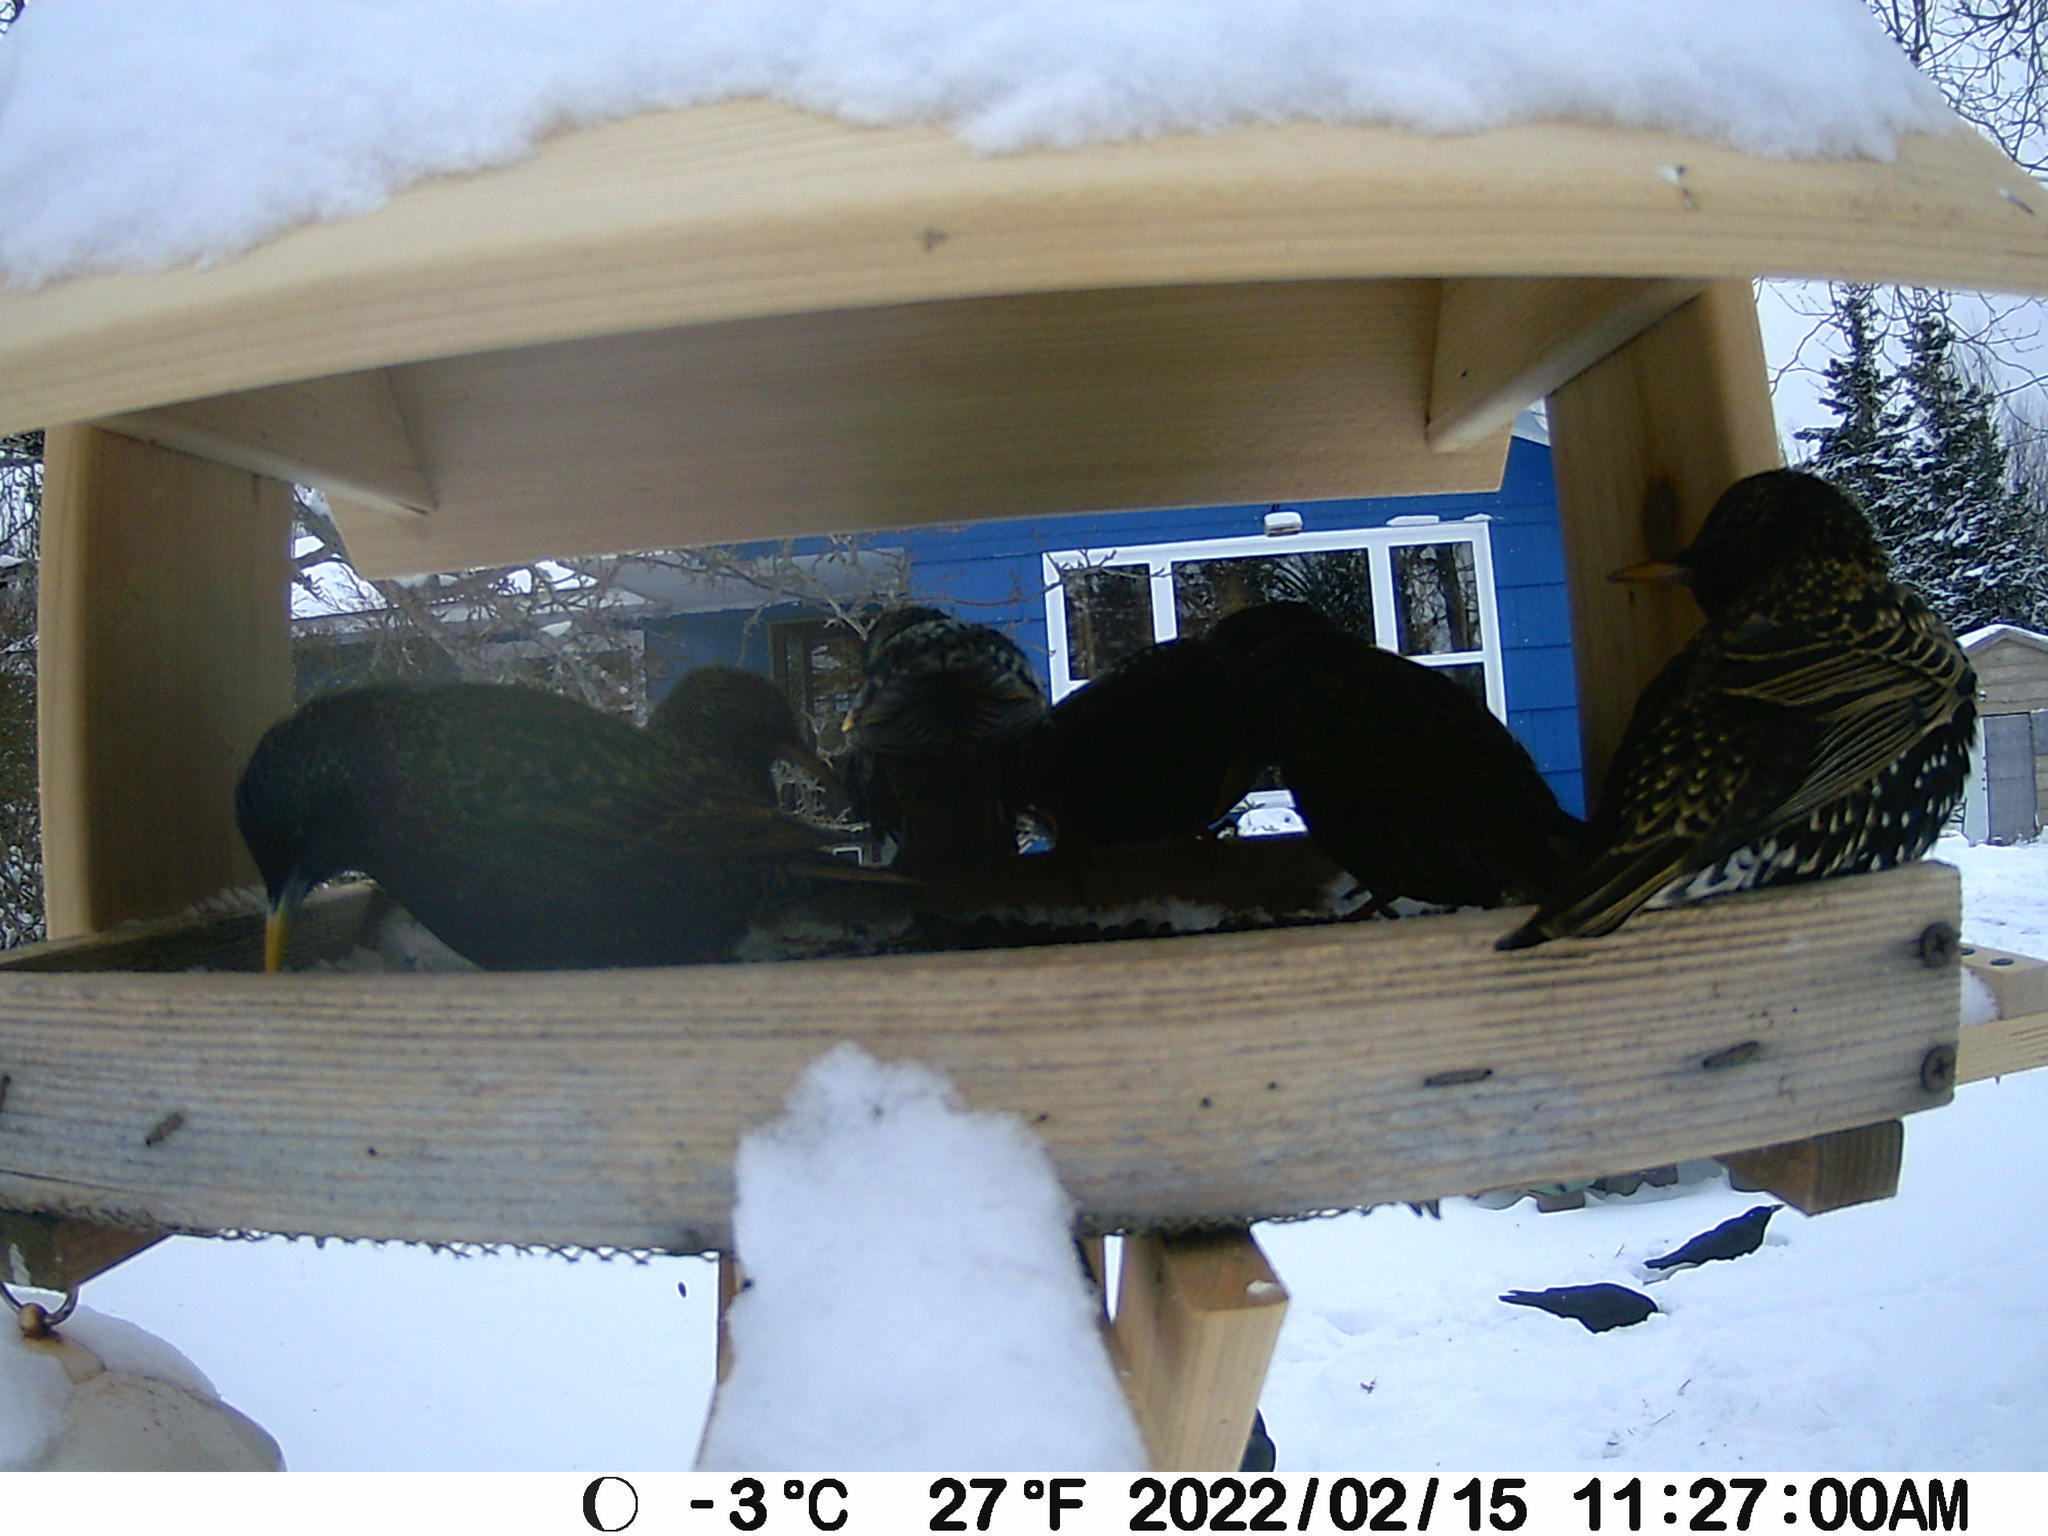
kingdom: Animalia
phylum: Chordata
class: Aves
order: Passeriformes
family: Sturnidae
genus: Sturnus
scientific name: Sturnus vulgaris
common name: Common starling
